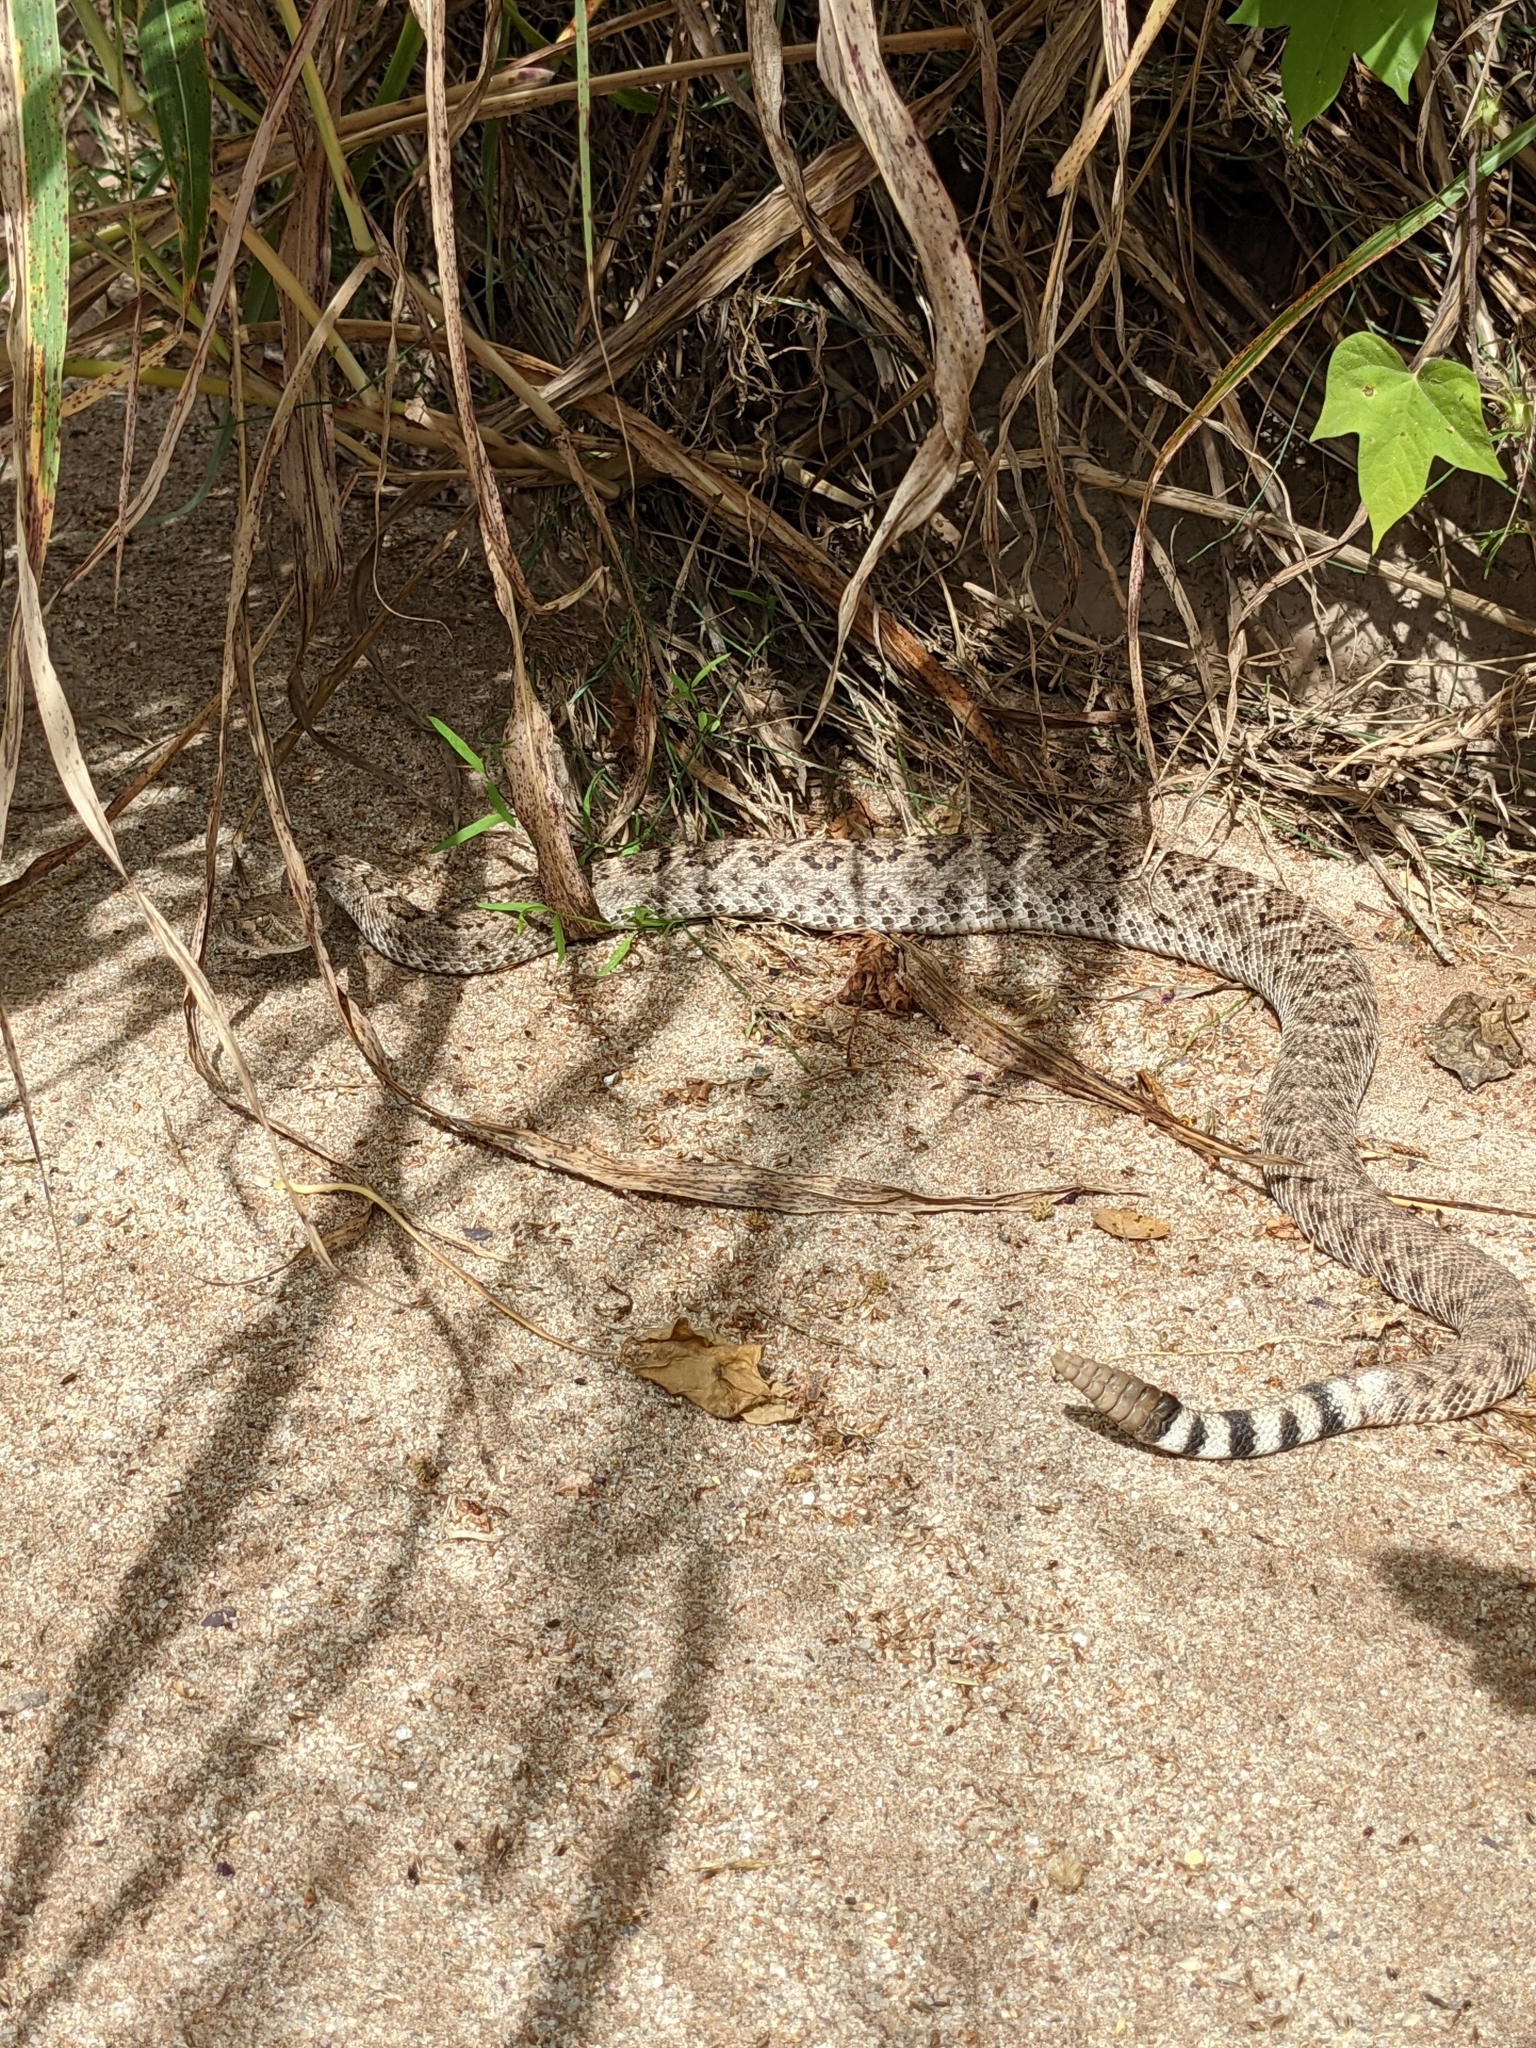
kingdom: Animalia
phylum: Chordata
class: Squamata
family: Viperidae
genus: Crotalus
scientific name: Crotalus atrox
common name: Western diamond-backed rattlesnake
